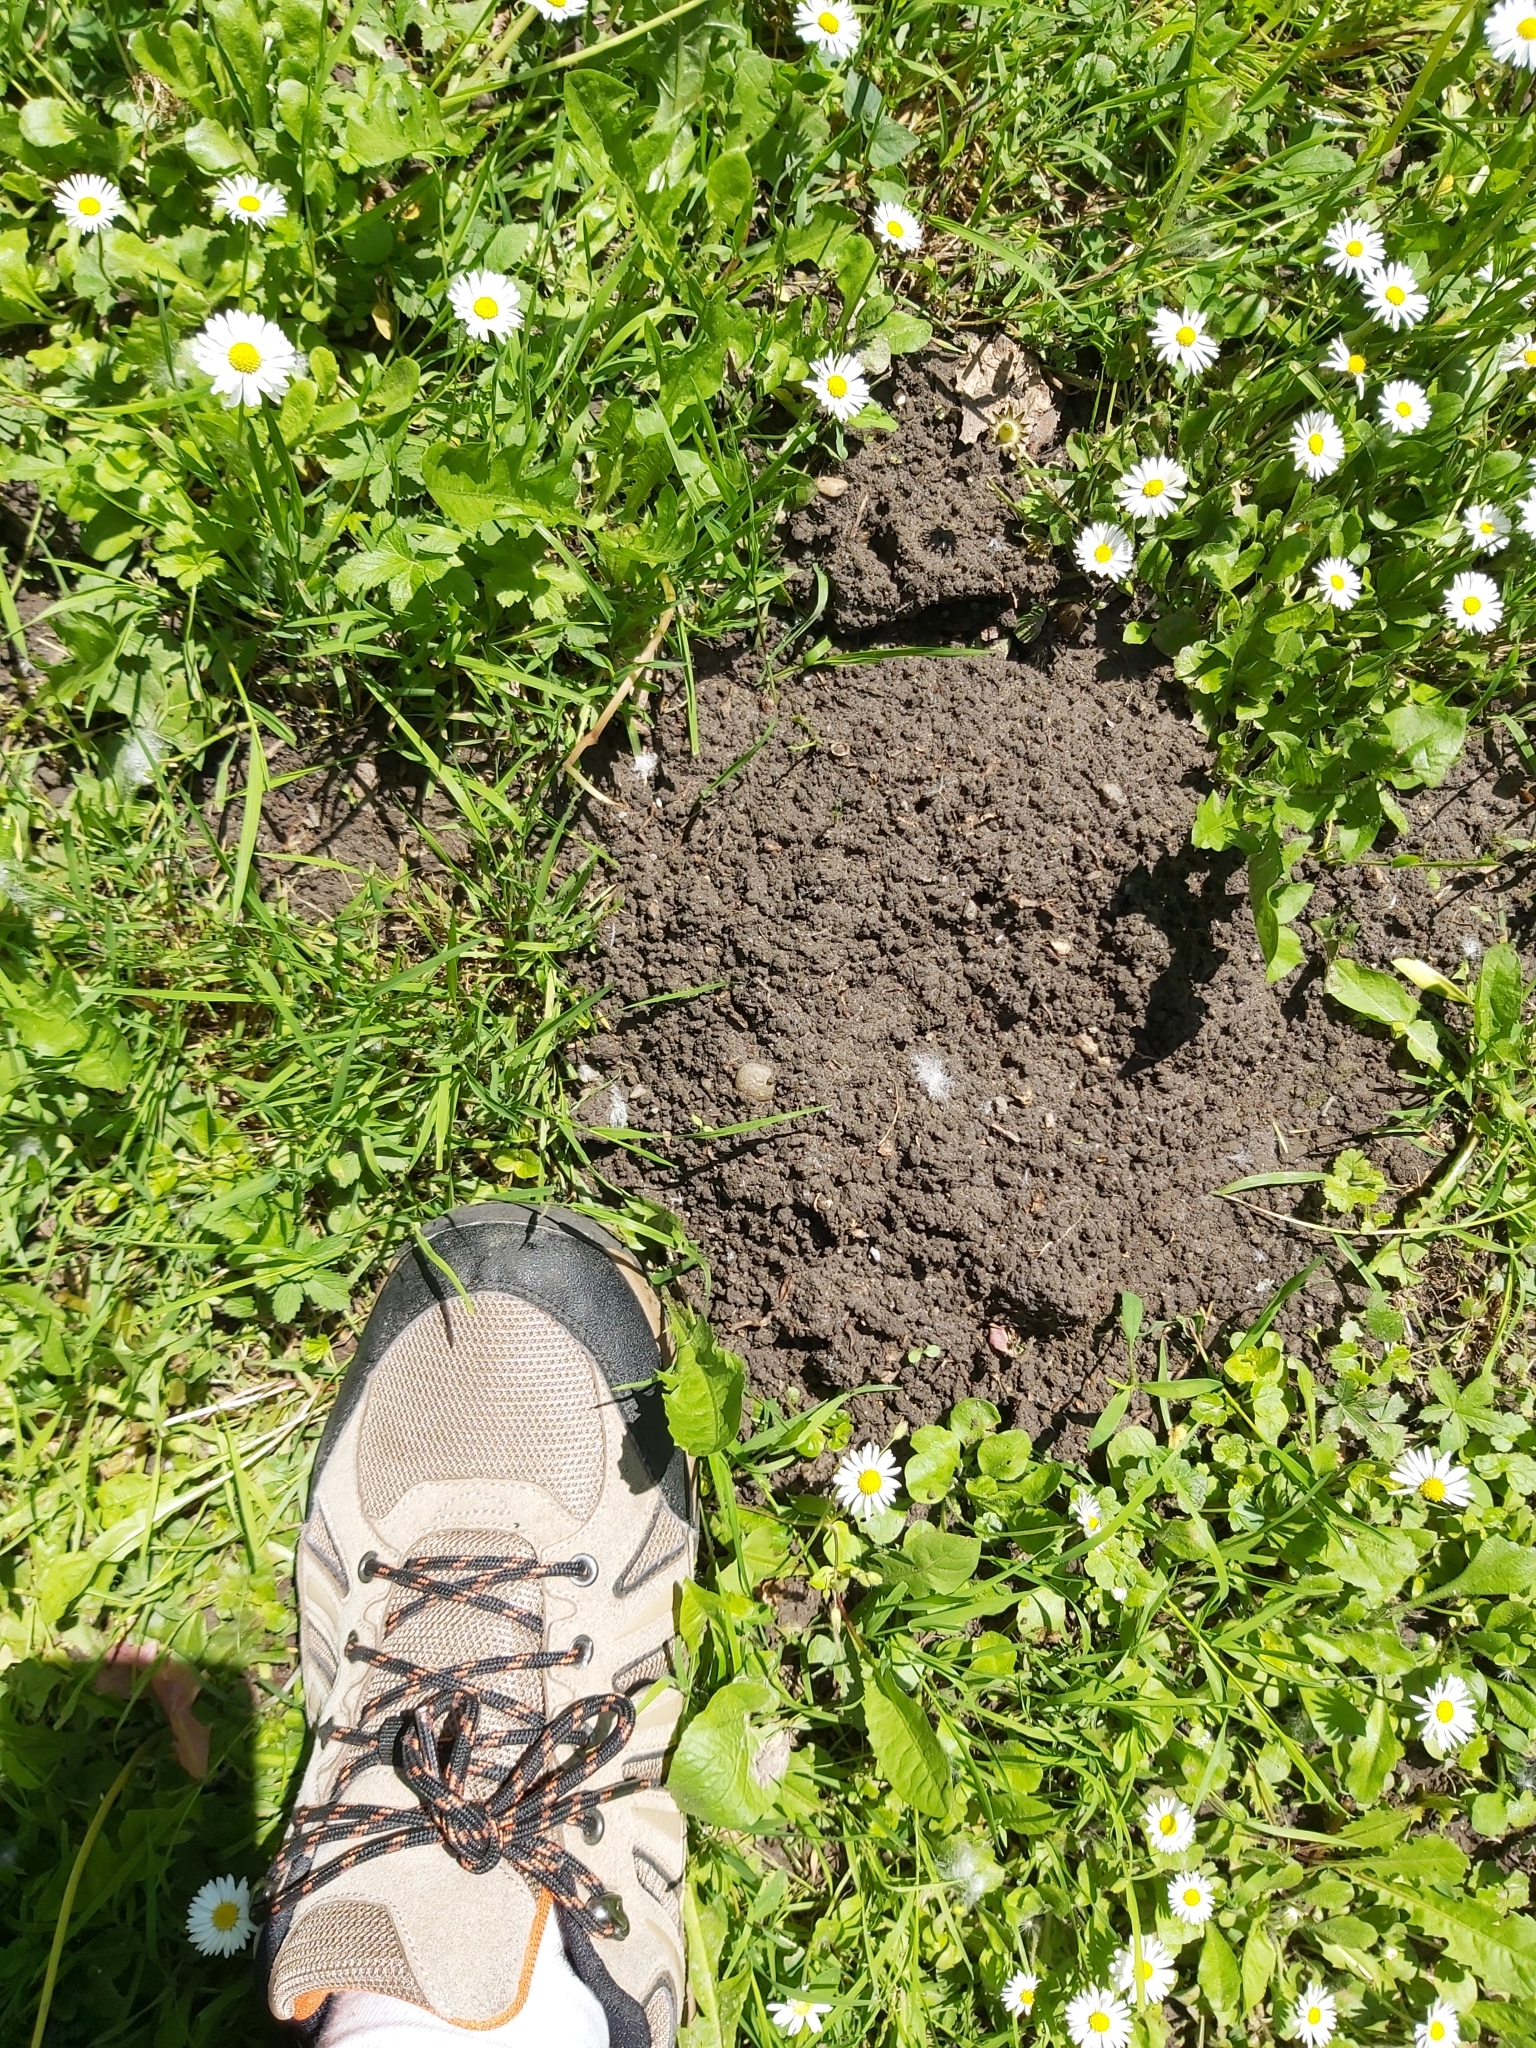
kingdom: Animalia
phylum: Chordata
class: Mammalia
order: Soricomorpha
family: Talpidae
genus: Talpa
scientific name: Talpa europaea
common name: European mole
